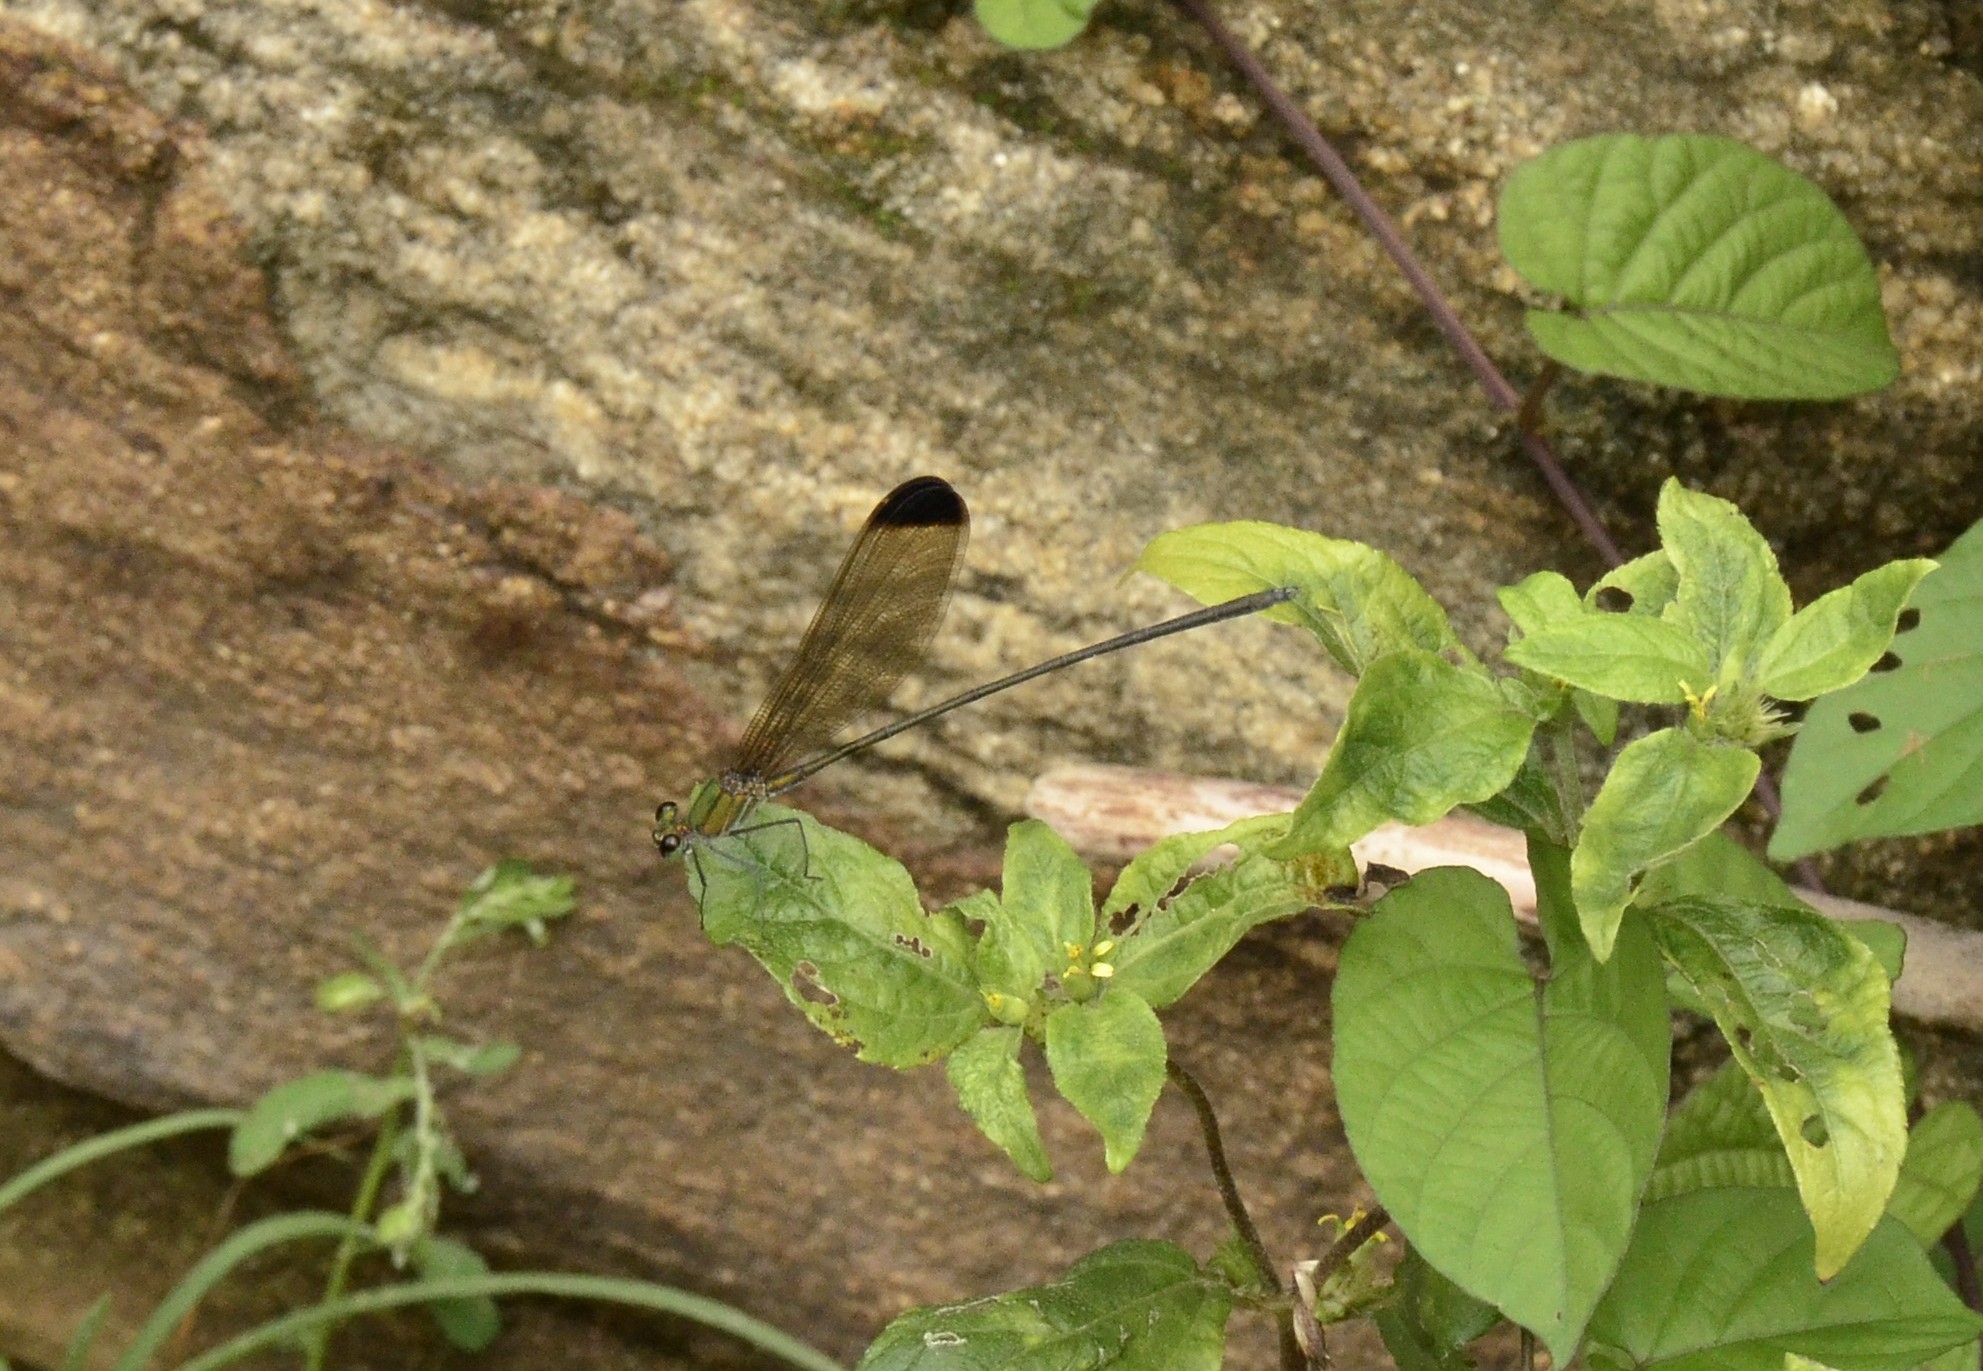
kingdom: Animalia
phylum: Arthropoda
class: Insecta
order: Odonata
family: Calopterygidae
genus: Vestalis
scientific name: Vestalis apicalis
